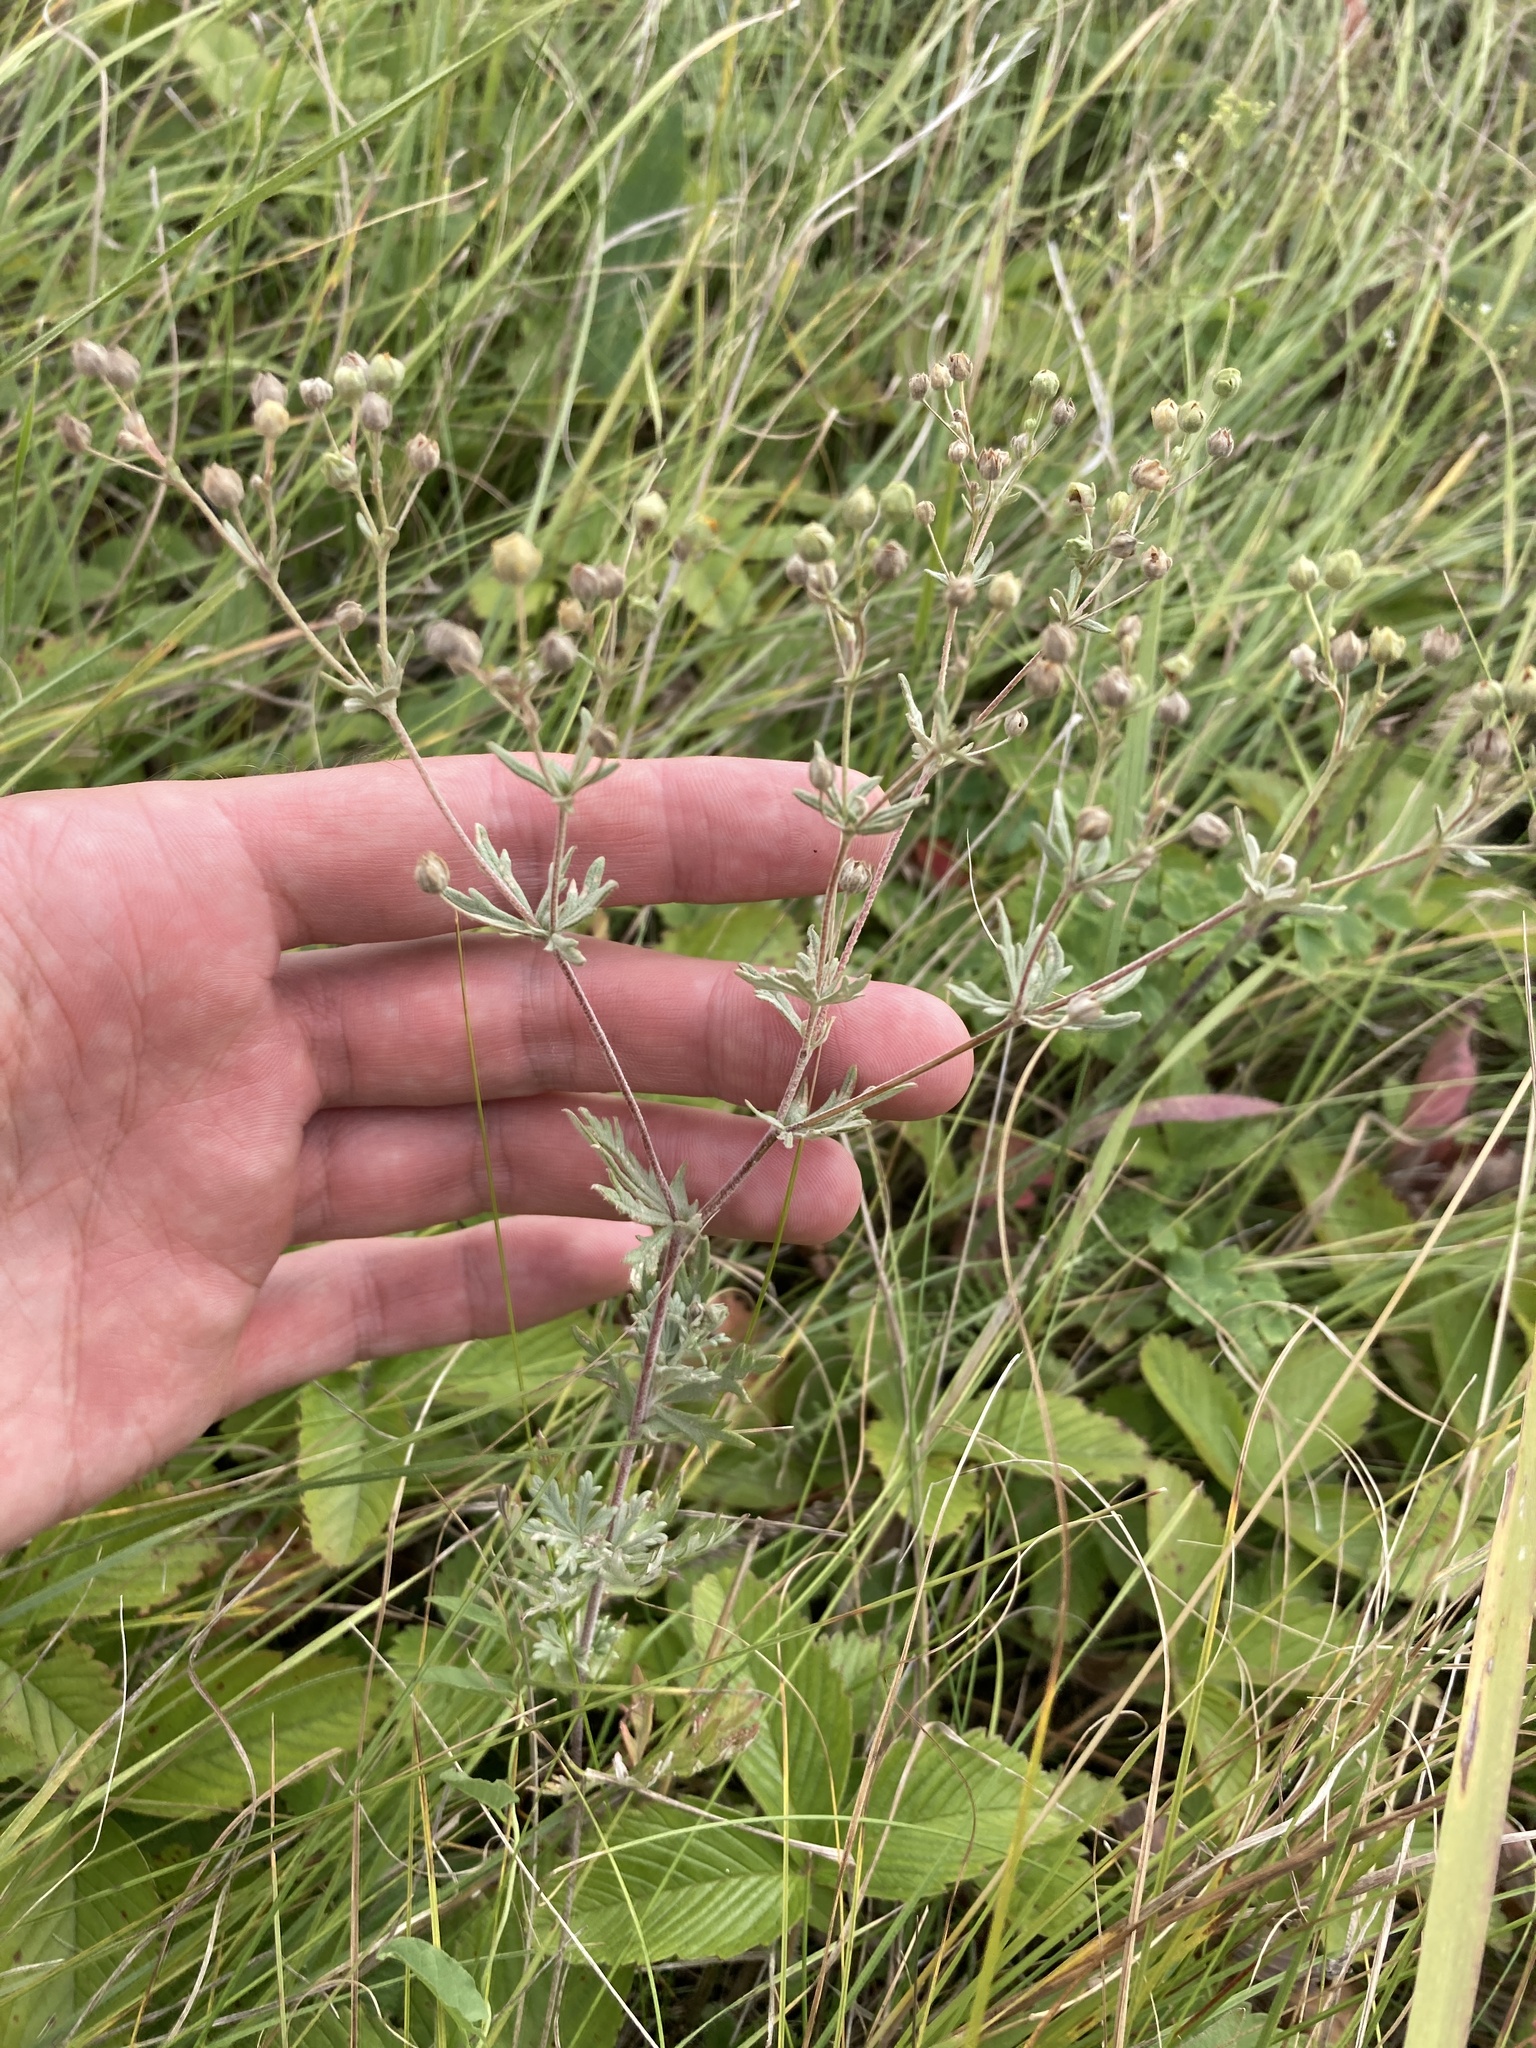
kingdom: Plantae
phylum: Tracheophyta
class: Magnoliopsida
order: Rosales
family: Rosaceae
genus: Potentilla
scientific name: Potentilla argentea
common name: Hoary cinquefoil
